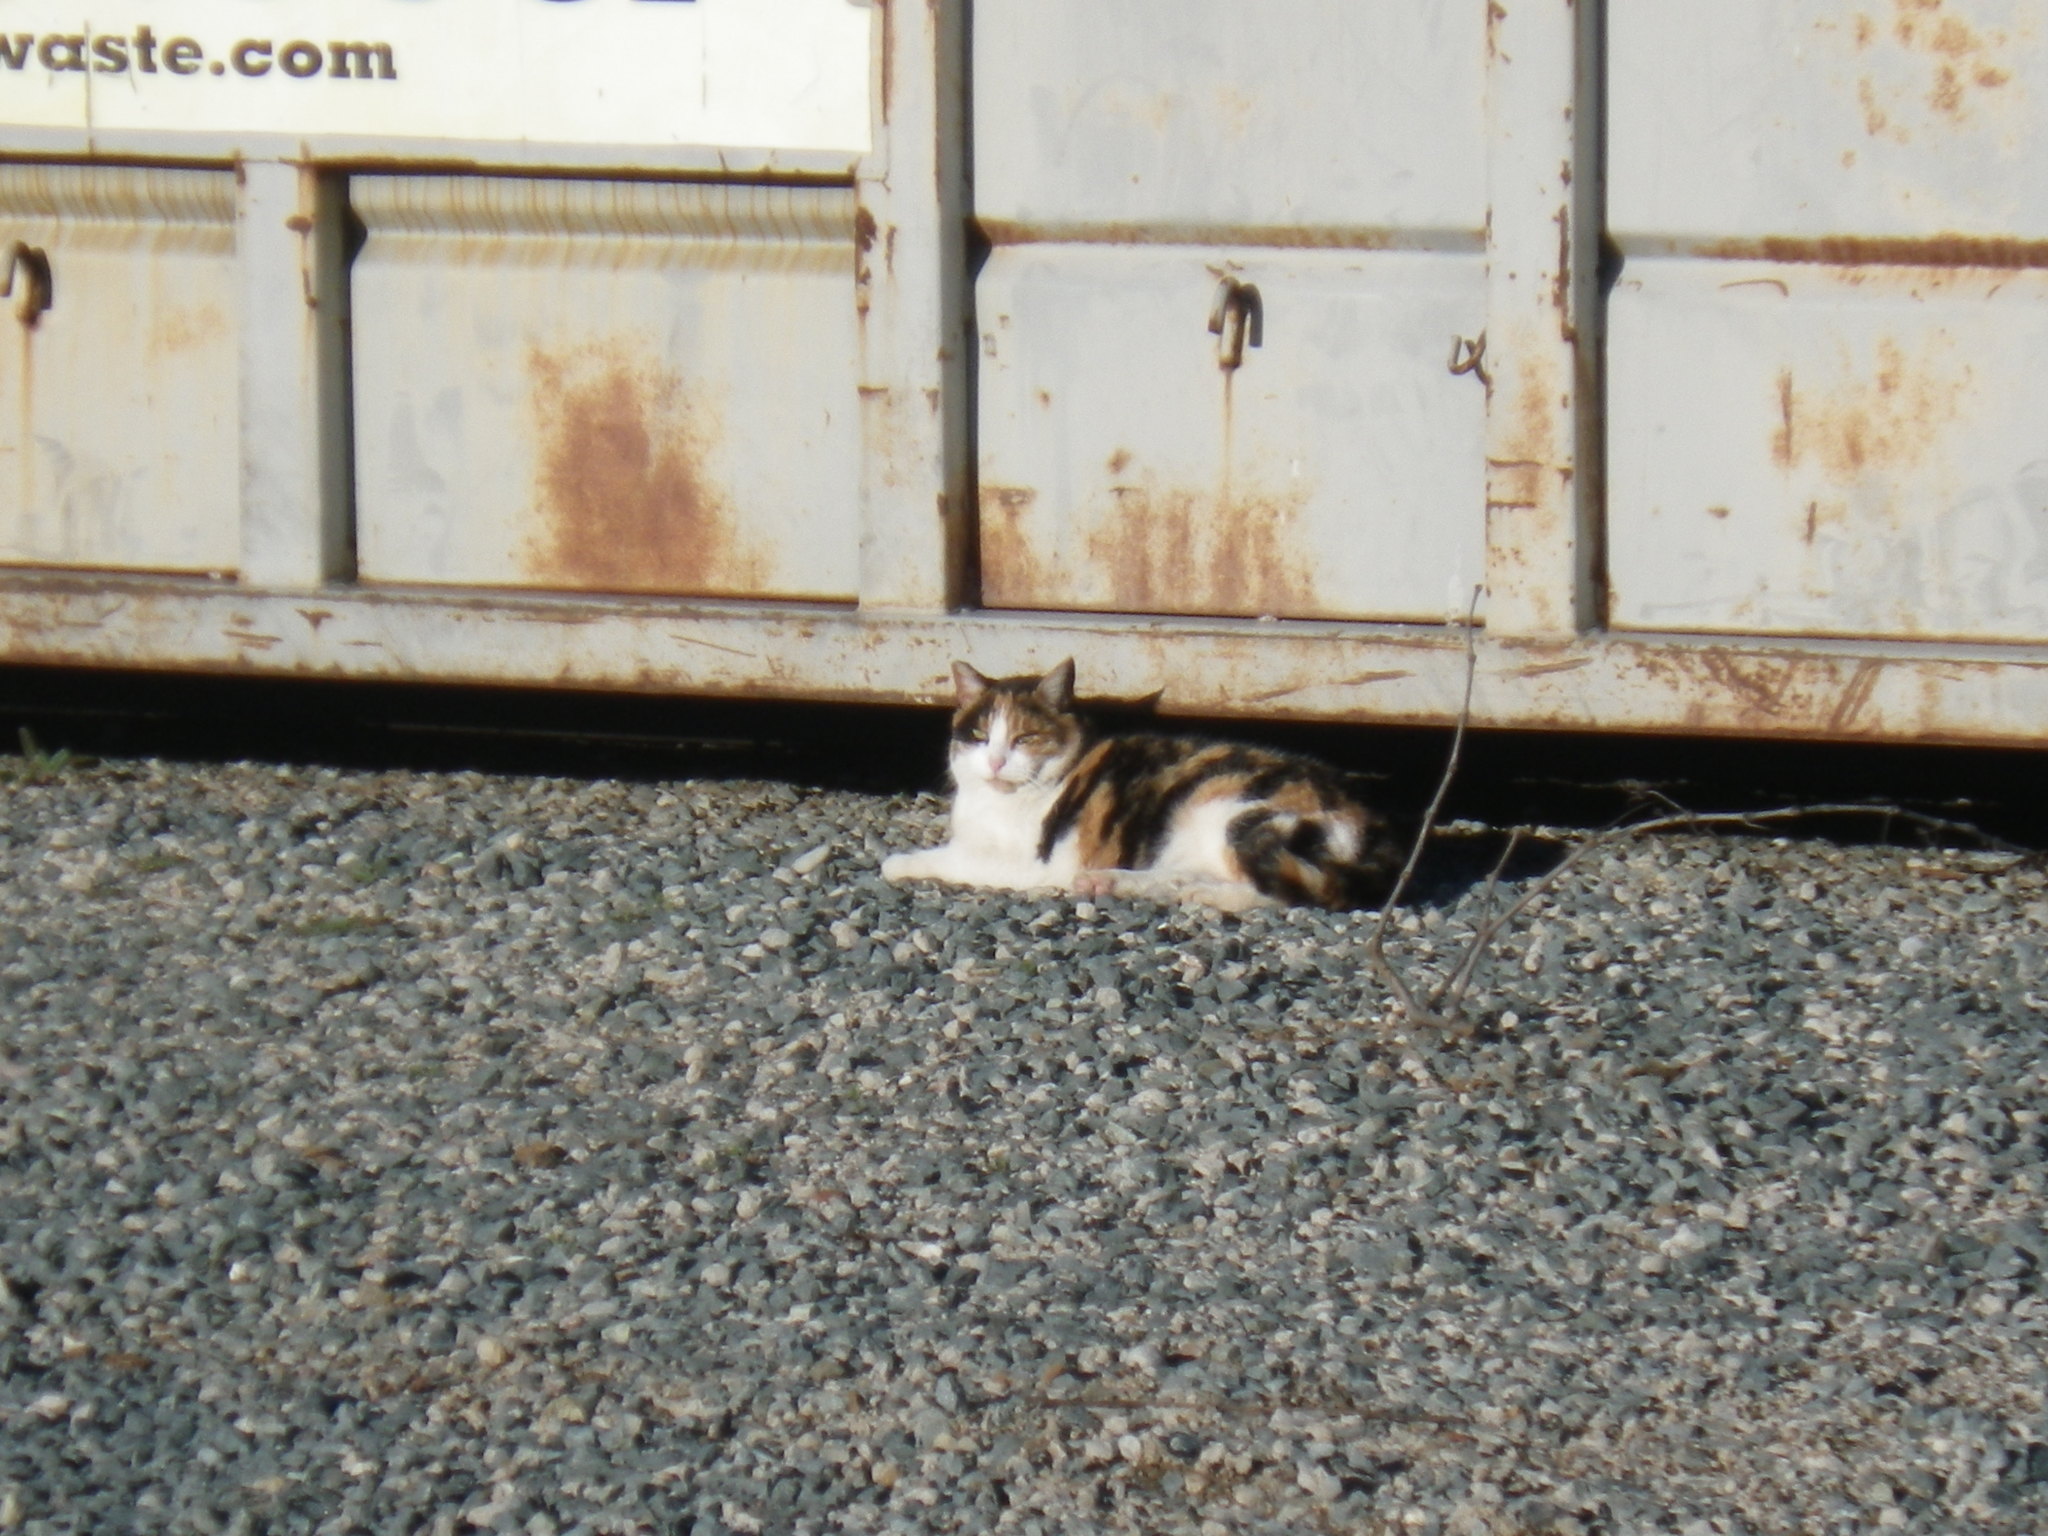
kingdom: Animalia
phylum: Chordata
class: Mammalia
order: Carnivora
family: Felidae
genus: Felis
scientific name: Felis catus
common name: Domestic cat
